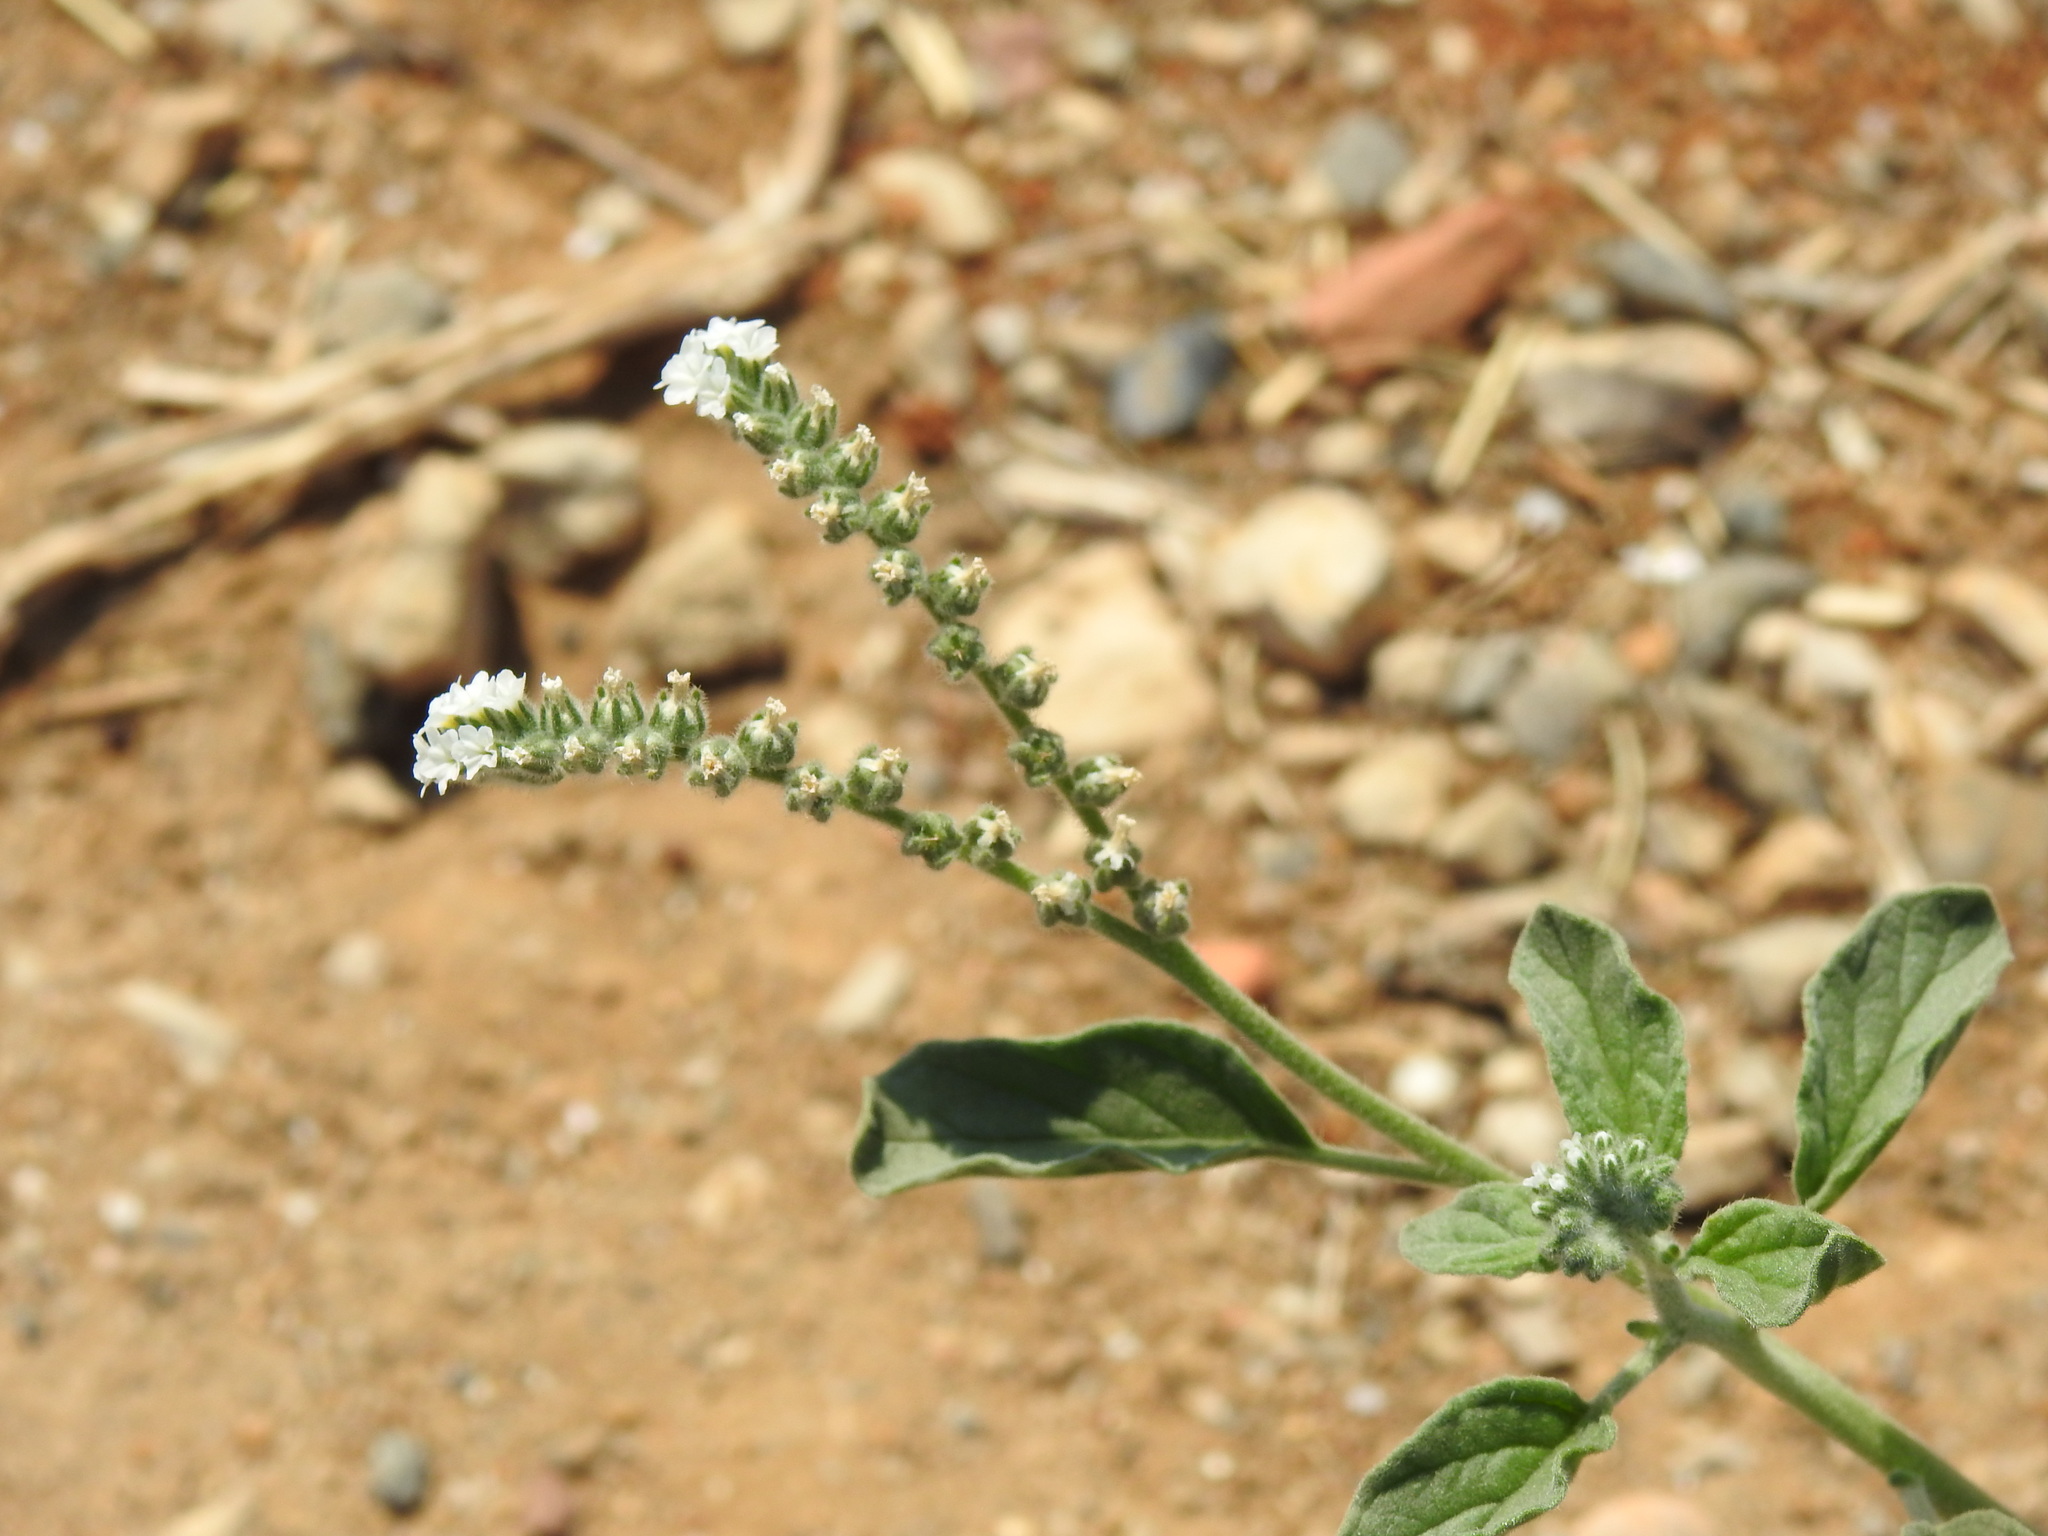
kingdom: Plantae
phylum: Tracheophyta
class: Magnoliopsida
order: Boraginales
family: Heliotropiaceae
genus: Heliotropium
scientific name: Heliotropium europaeum
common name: European heliotrope
